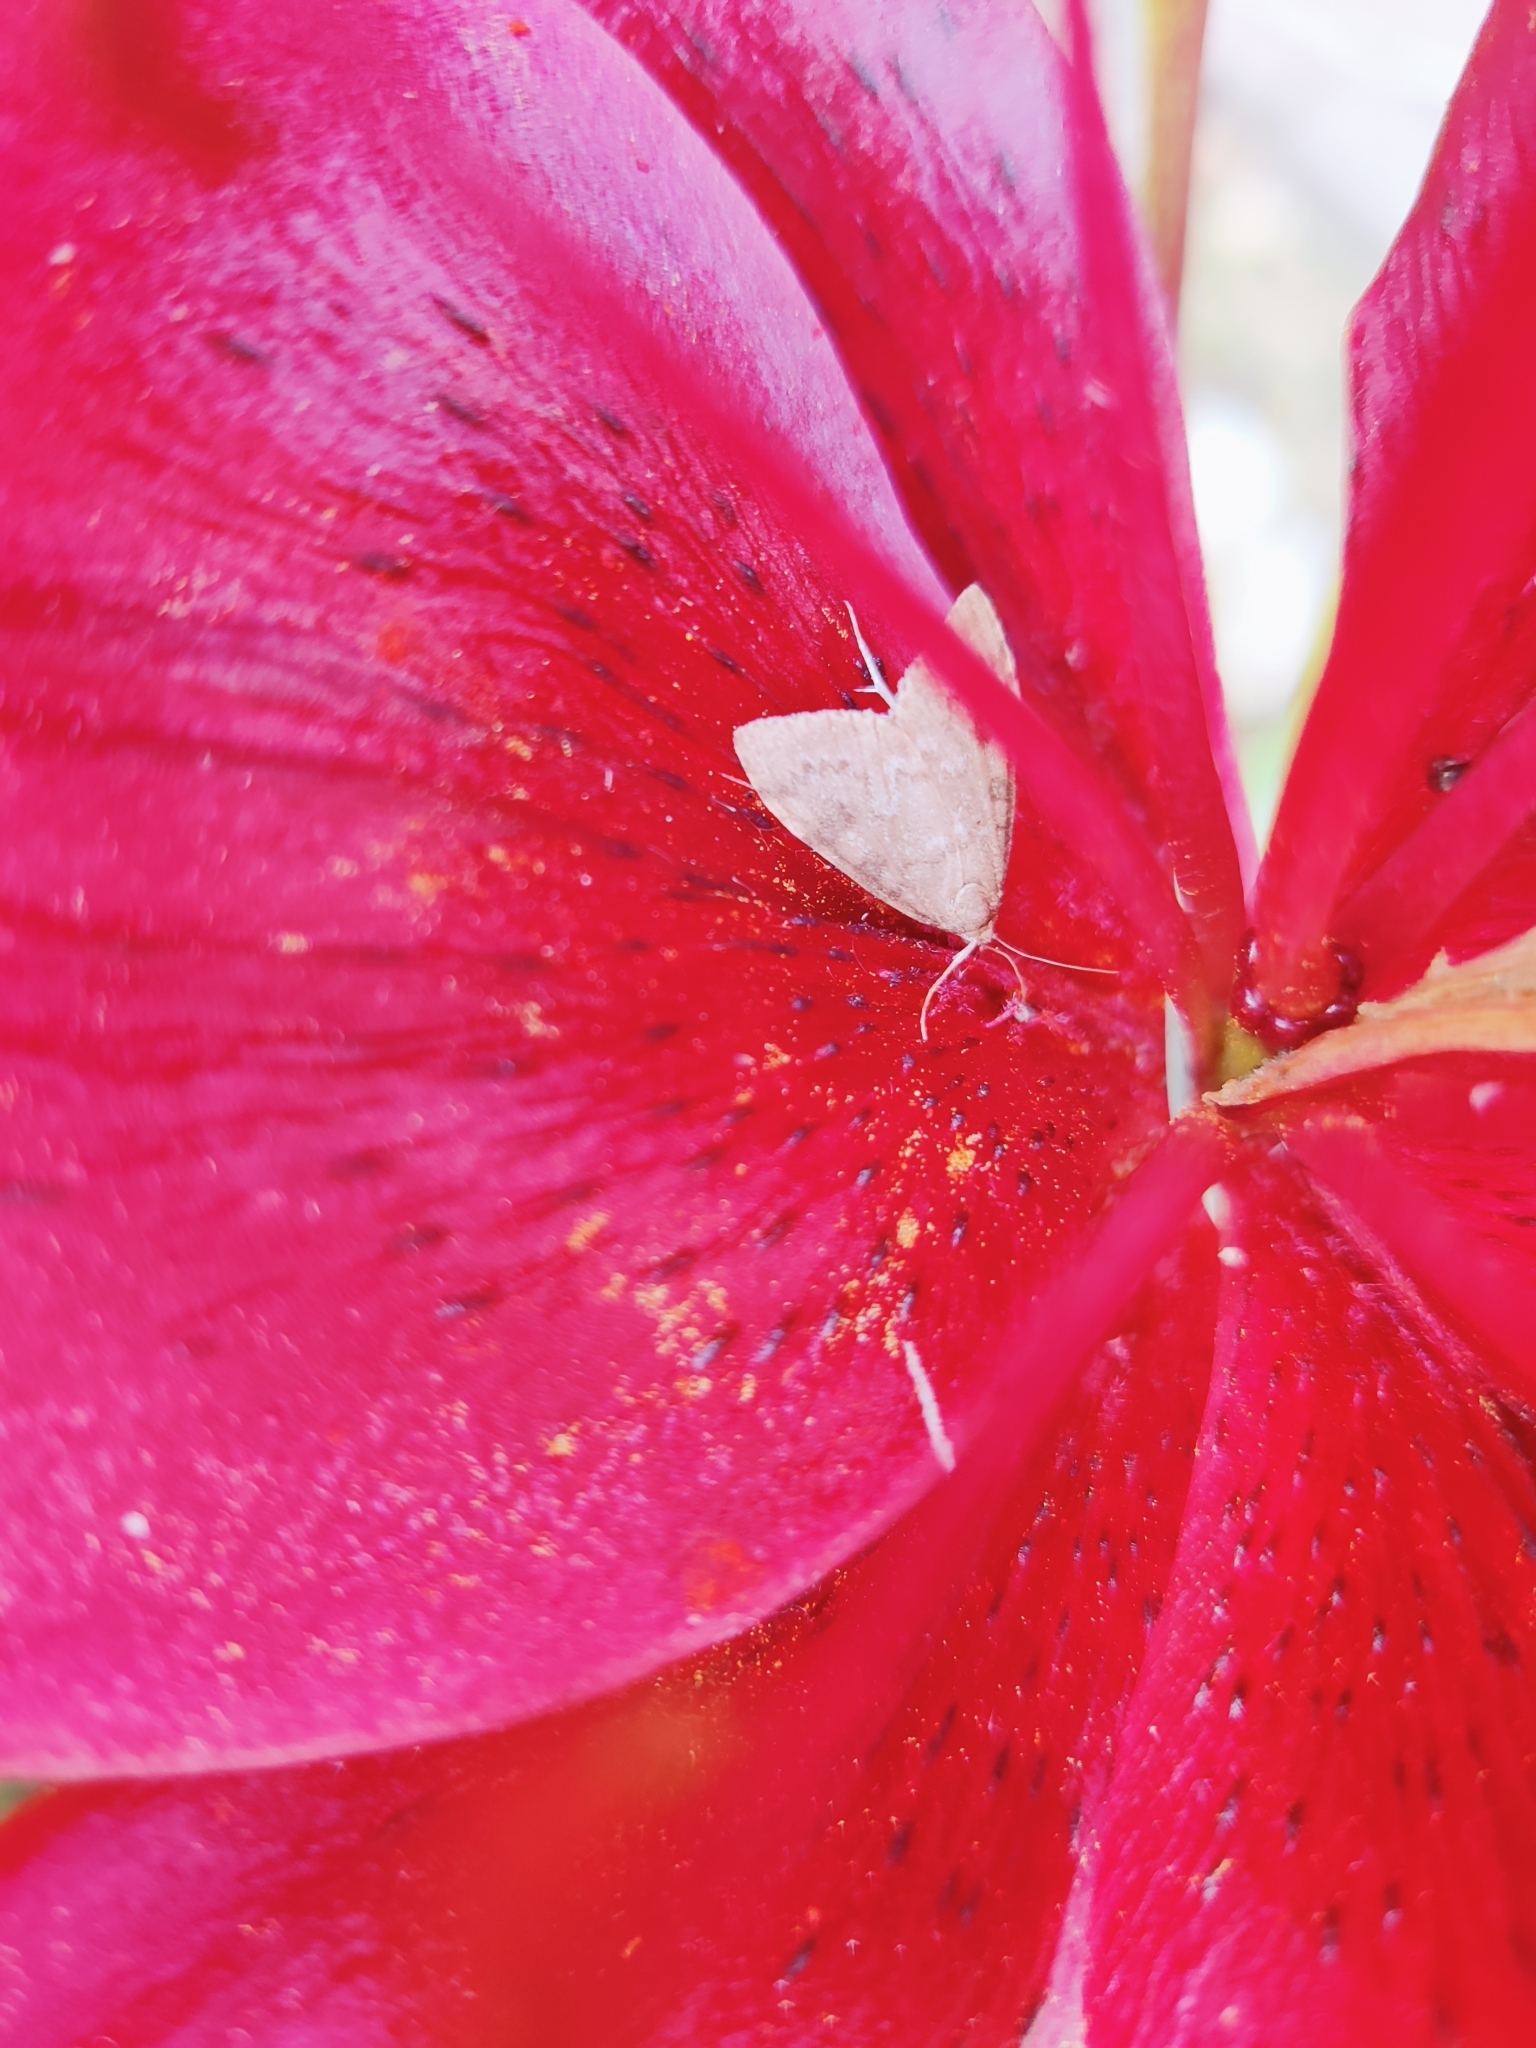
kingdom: Animalia
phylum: Arthropoda
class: Insecta
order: Lepidoptera
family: Crambidae
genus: Udea
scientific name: Udea prunalis
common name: Dusky pearl
